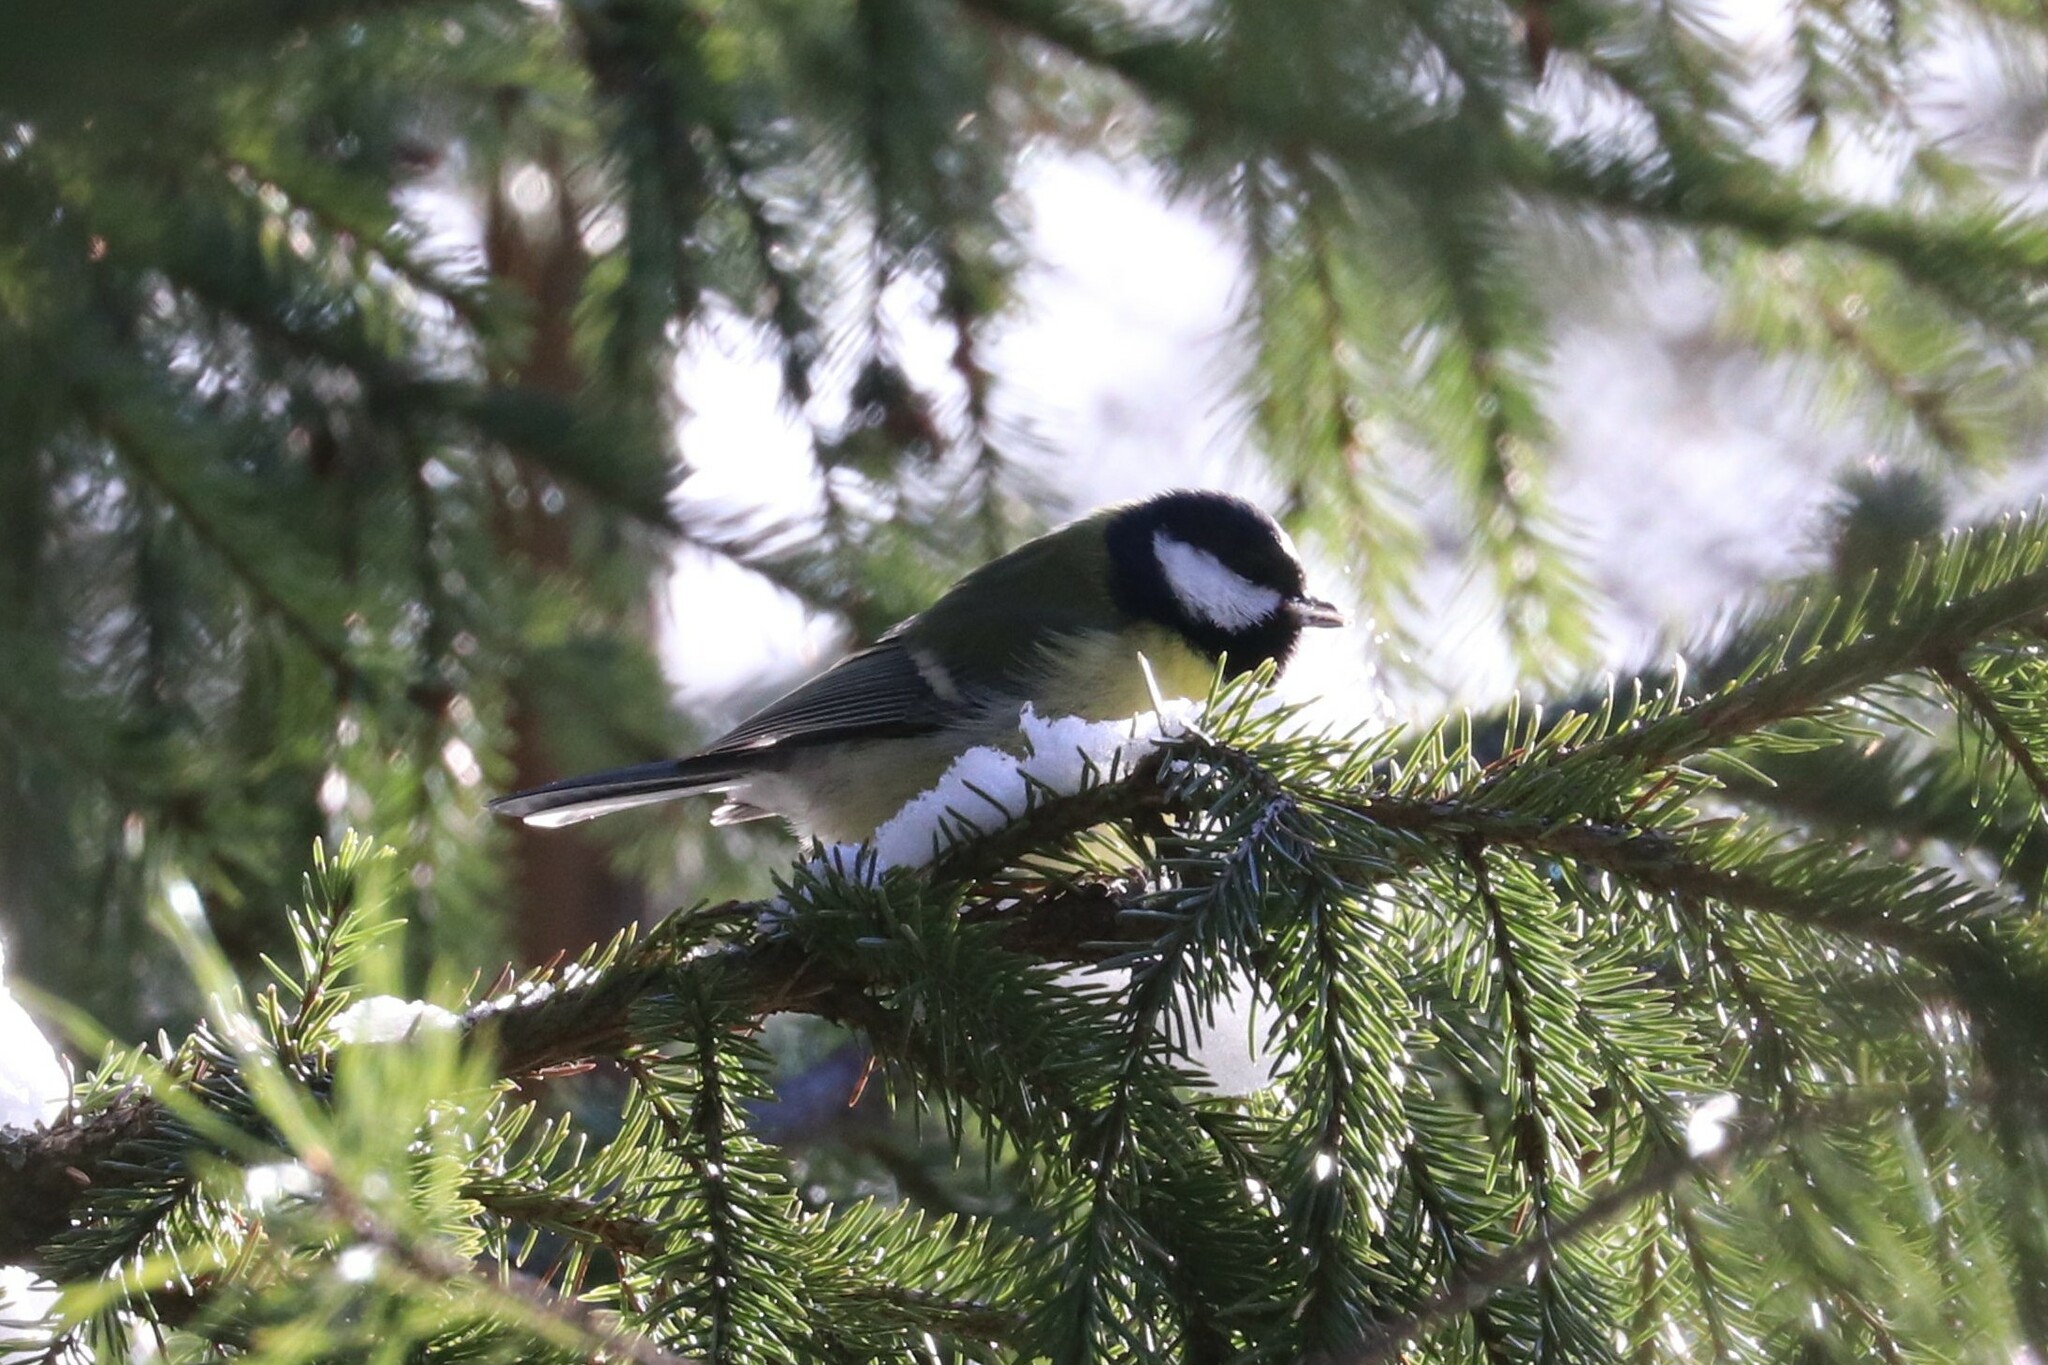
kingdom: Animalia
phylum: Chordata
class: Aves
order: Passeriformes
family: Paridae
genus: Parus
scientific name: Parus major
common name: Great tit
